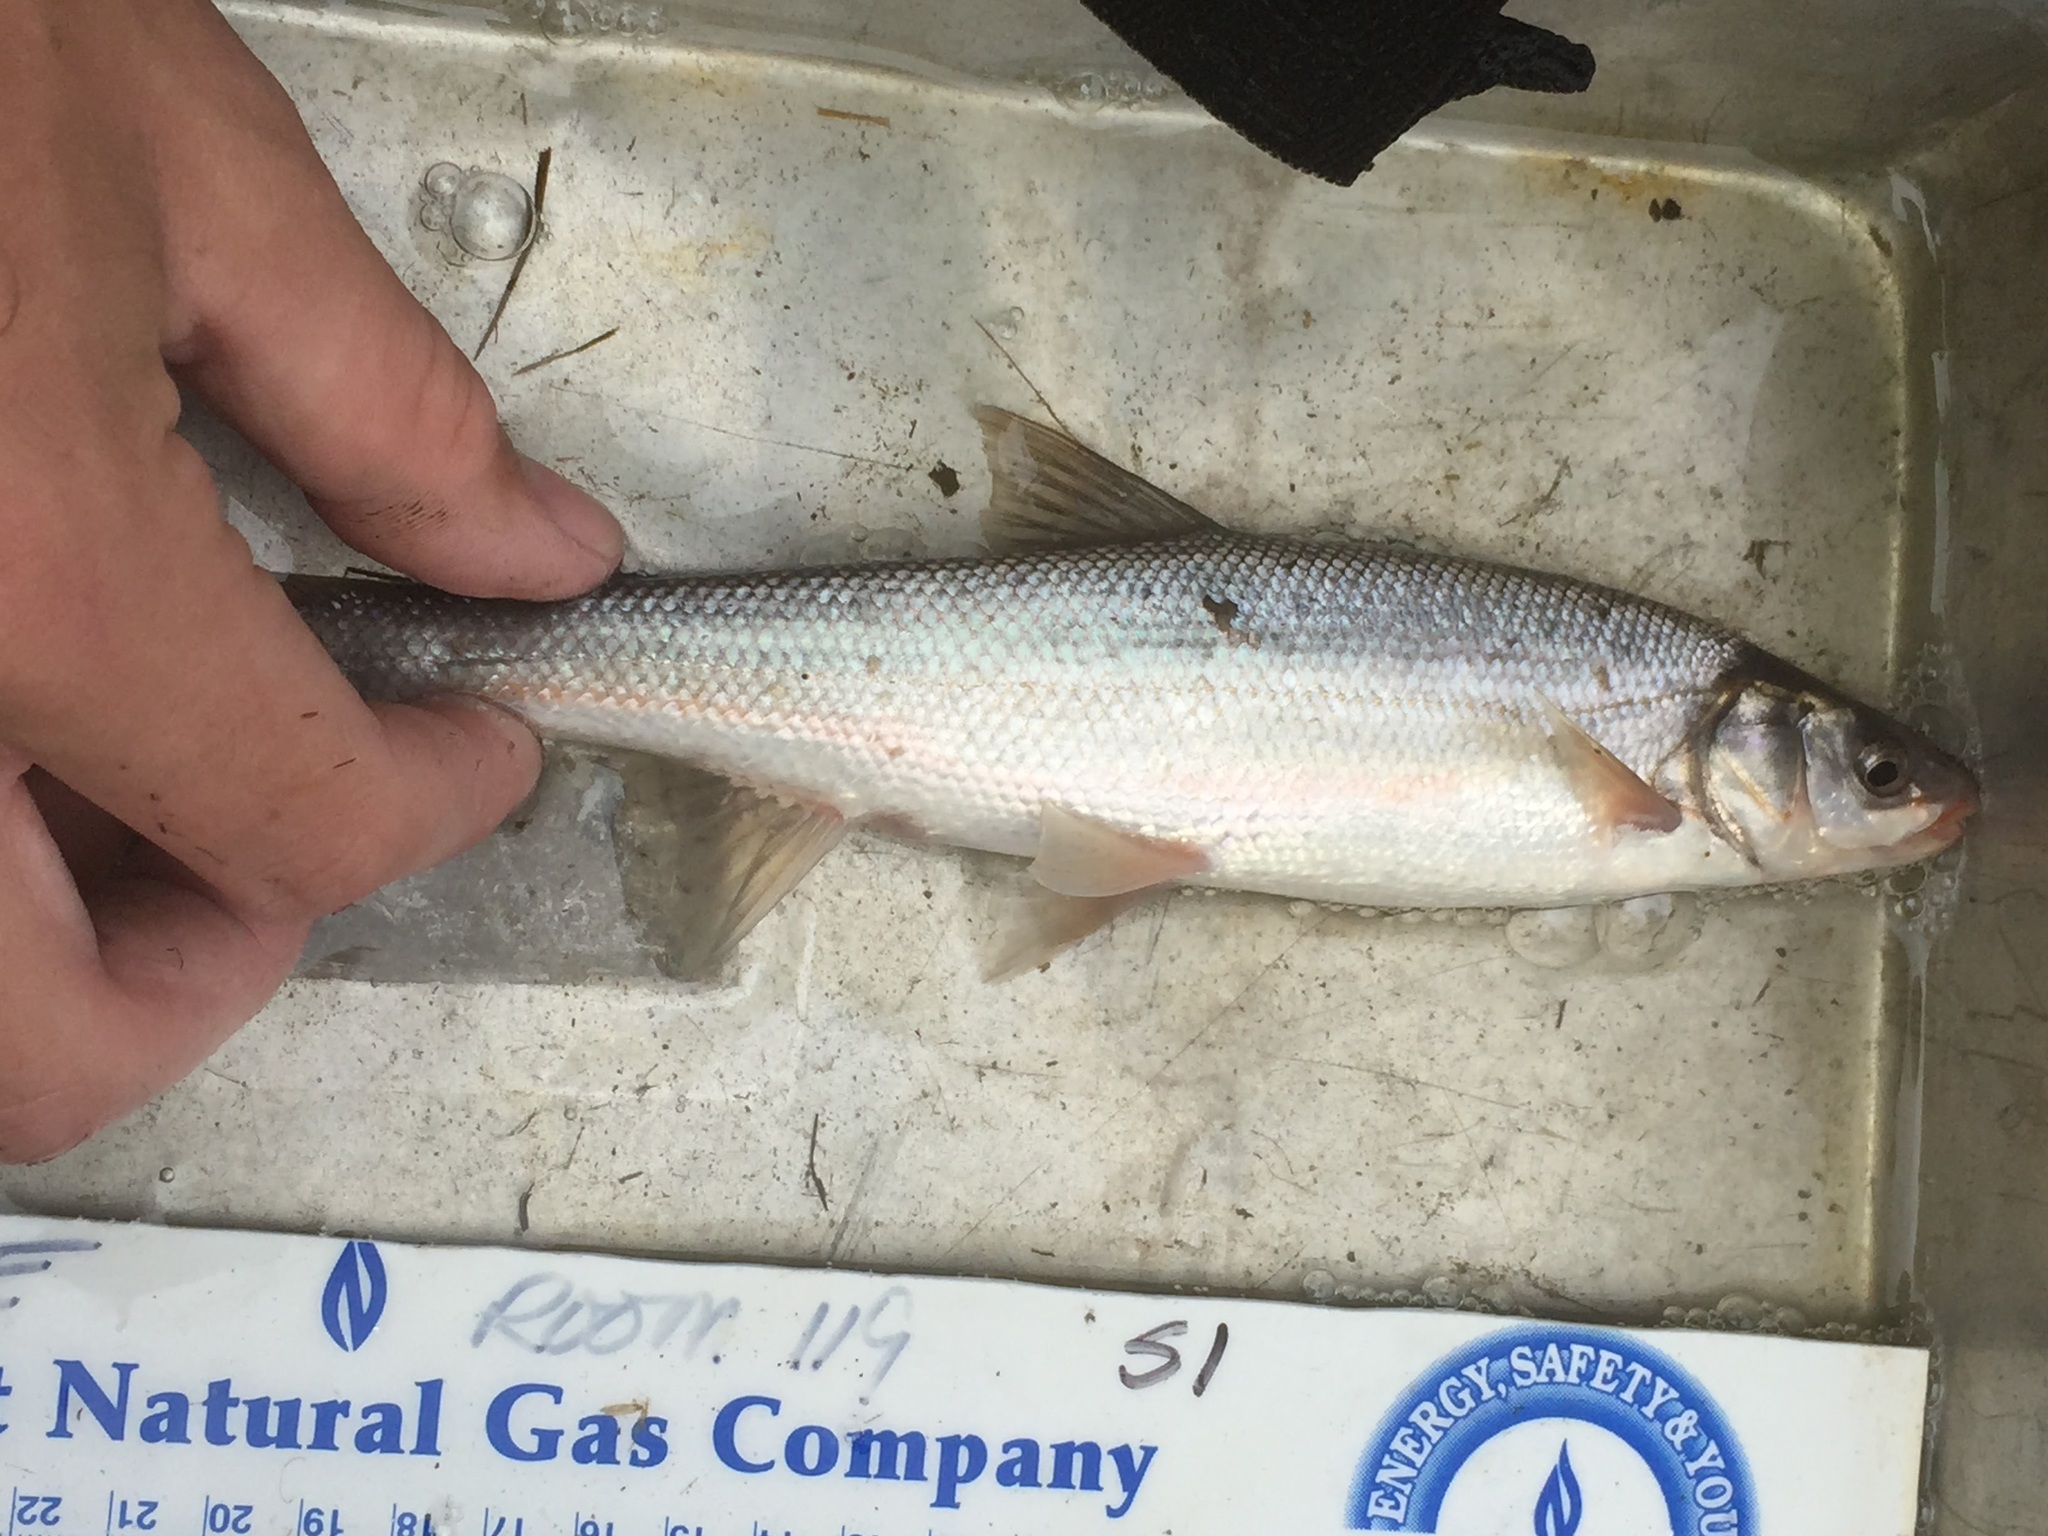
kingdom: Animalia
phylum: Chordata
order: Cypriniformes
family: Cyprinidae
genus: Mylocheilus
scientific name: Mylocheilus caurinus
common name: Peamouth
